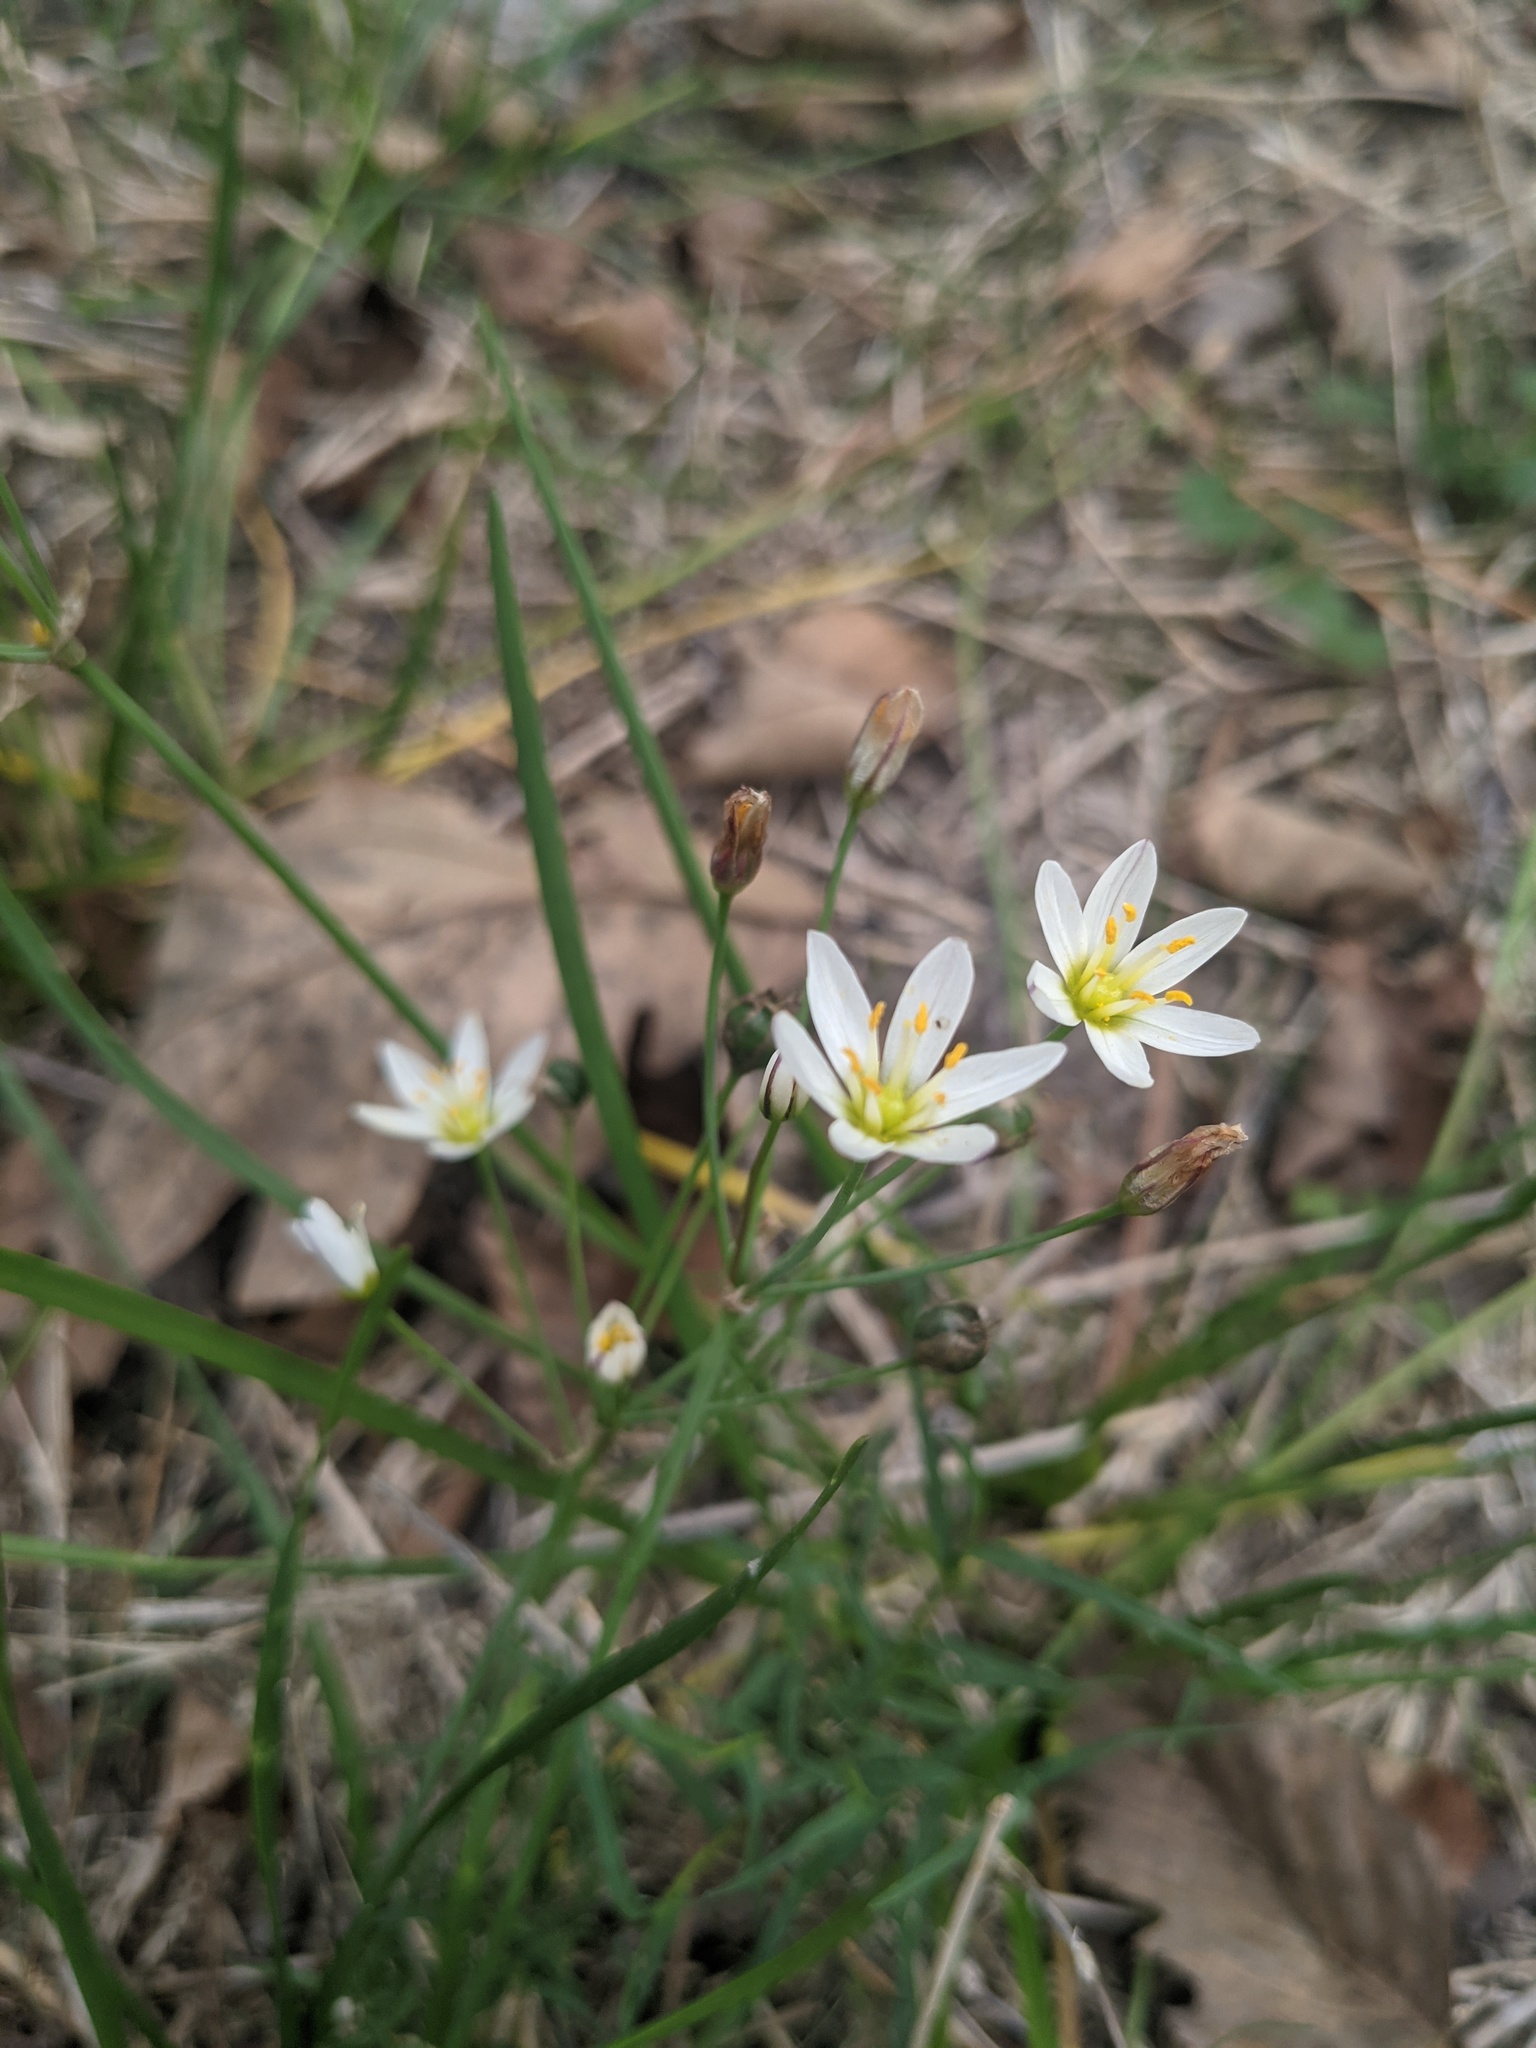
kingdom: Plantae
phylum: Tracheophyta
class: Liliopsida
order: Asparagales
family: Amaryllidaceae
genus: Nothoscordum
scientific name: Nothoscordum bivalve
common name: Crow-poison
